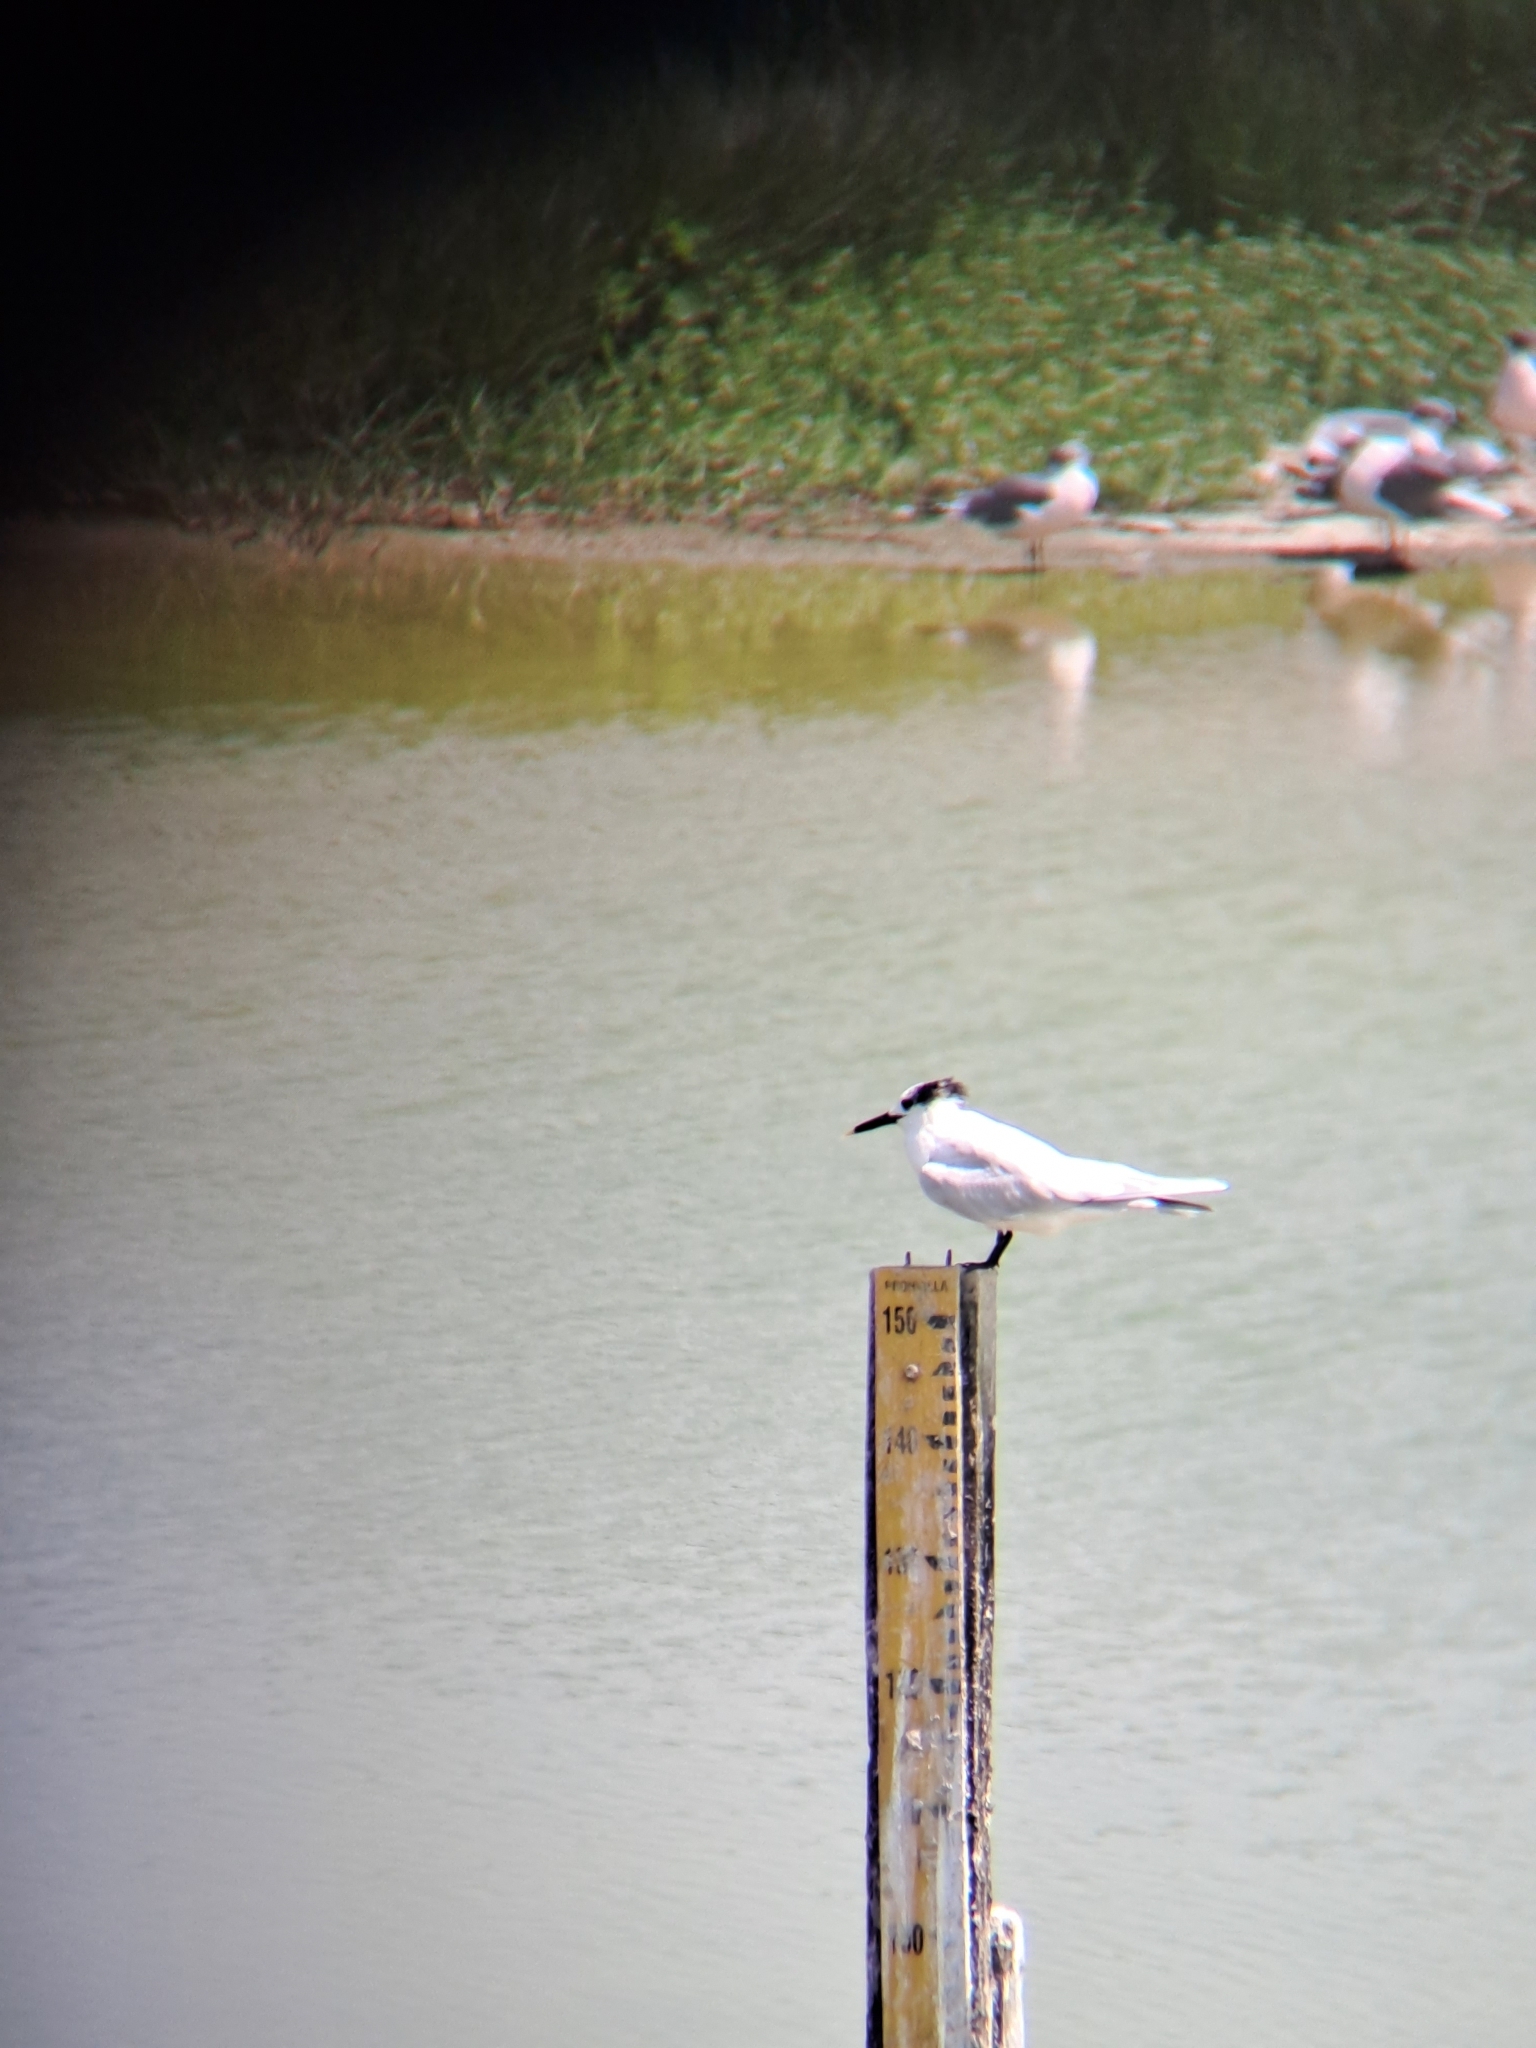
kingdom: Animalia
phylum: Chordata
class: Aves
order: Charadriiformes
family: Laridae
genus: Thalasseus
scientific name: Thalasseus sandvicensis
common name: Sandwich tern
